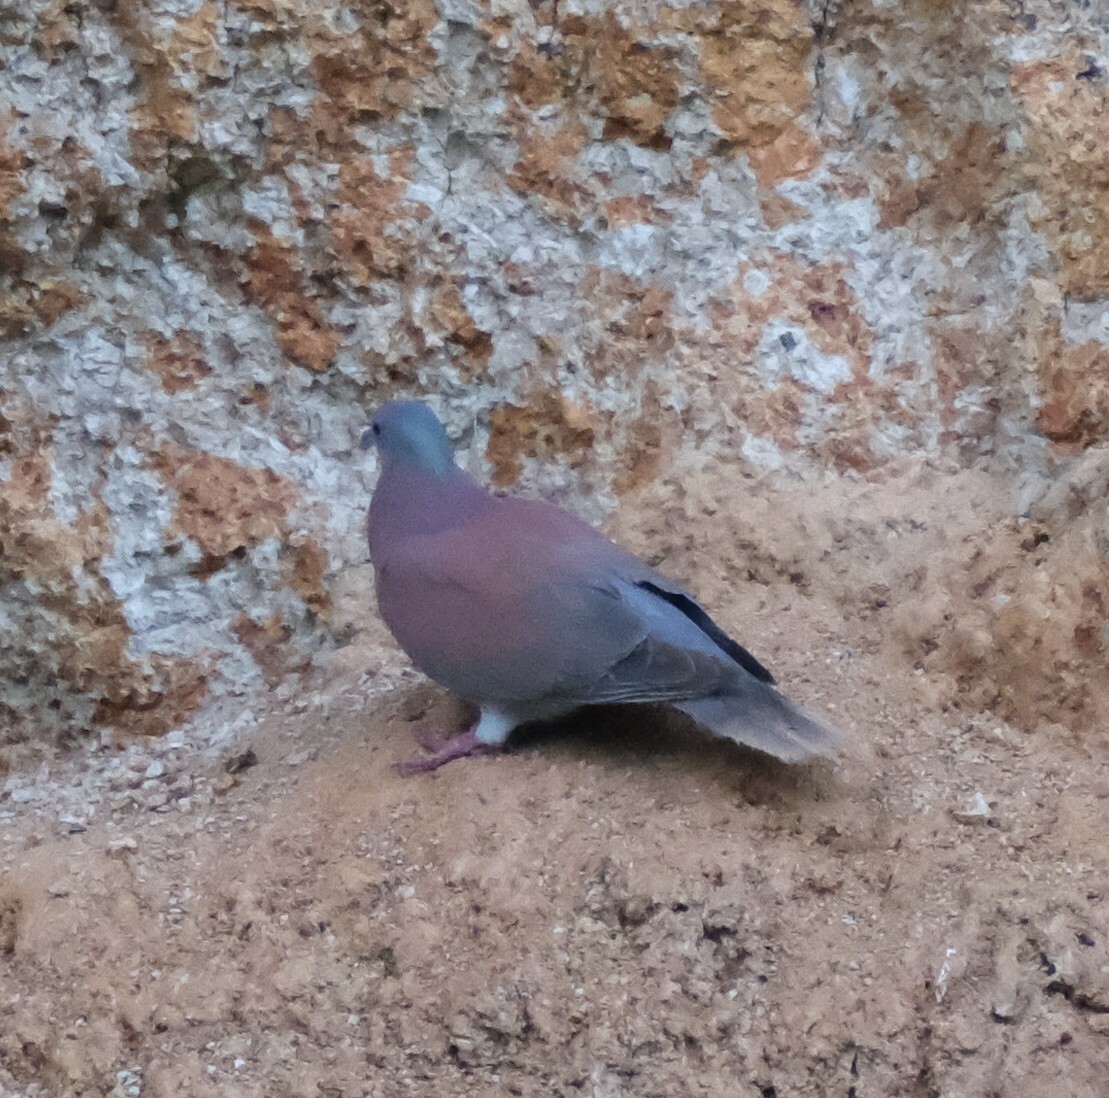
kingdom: Animalia
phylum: Chordata
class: Aves
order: Columbiformes
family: Columbidae
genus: Patagioenas
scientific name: Patagioenas cayennensis
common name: Pale-vented pigeon
